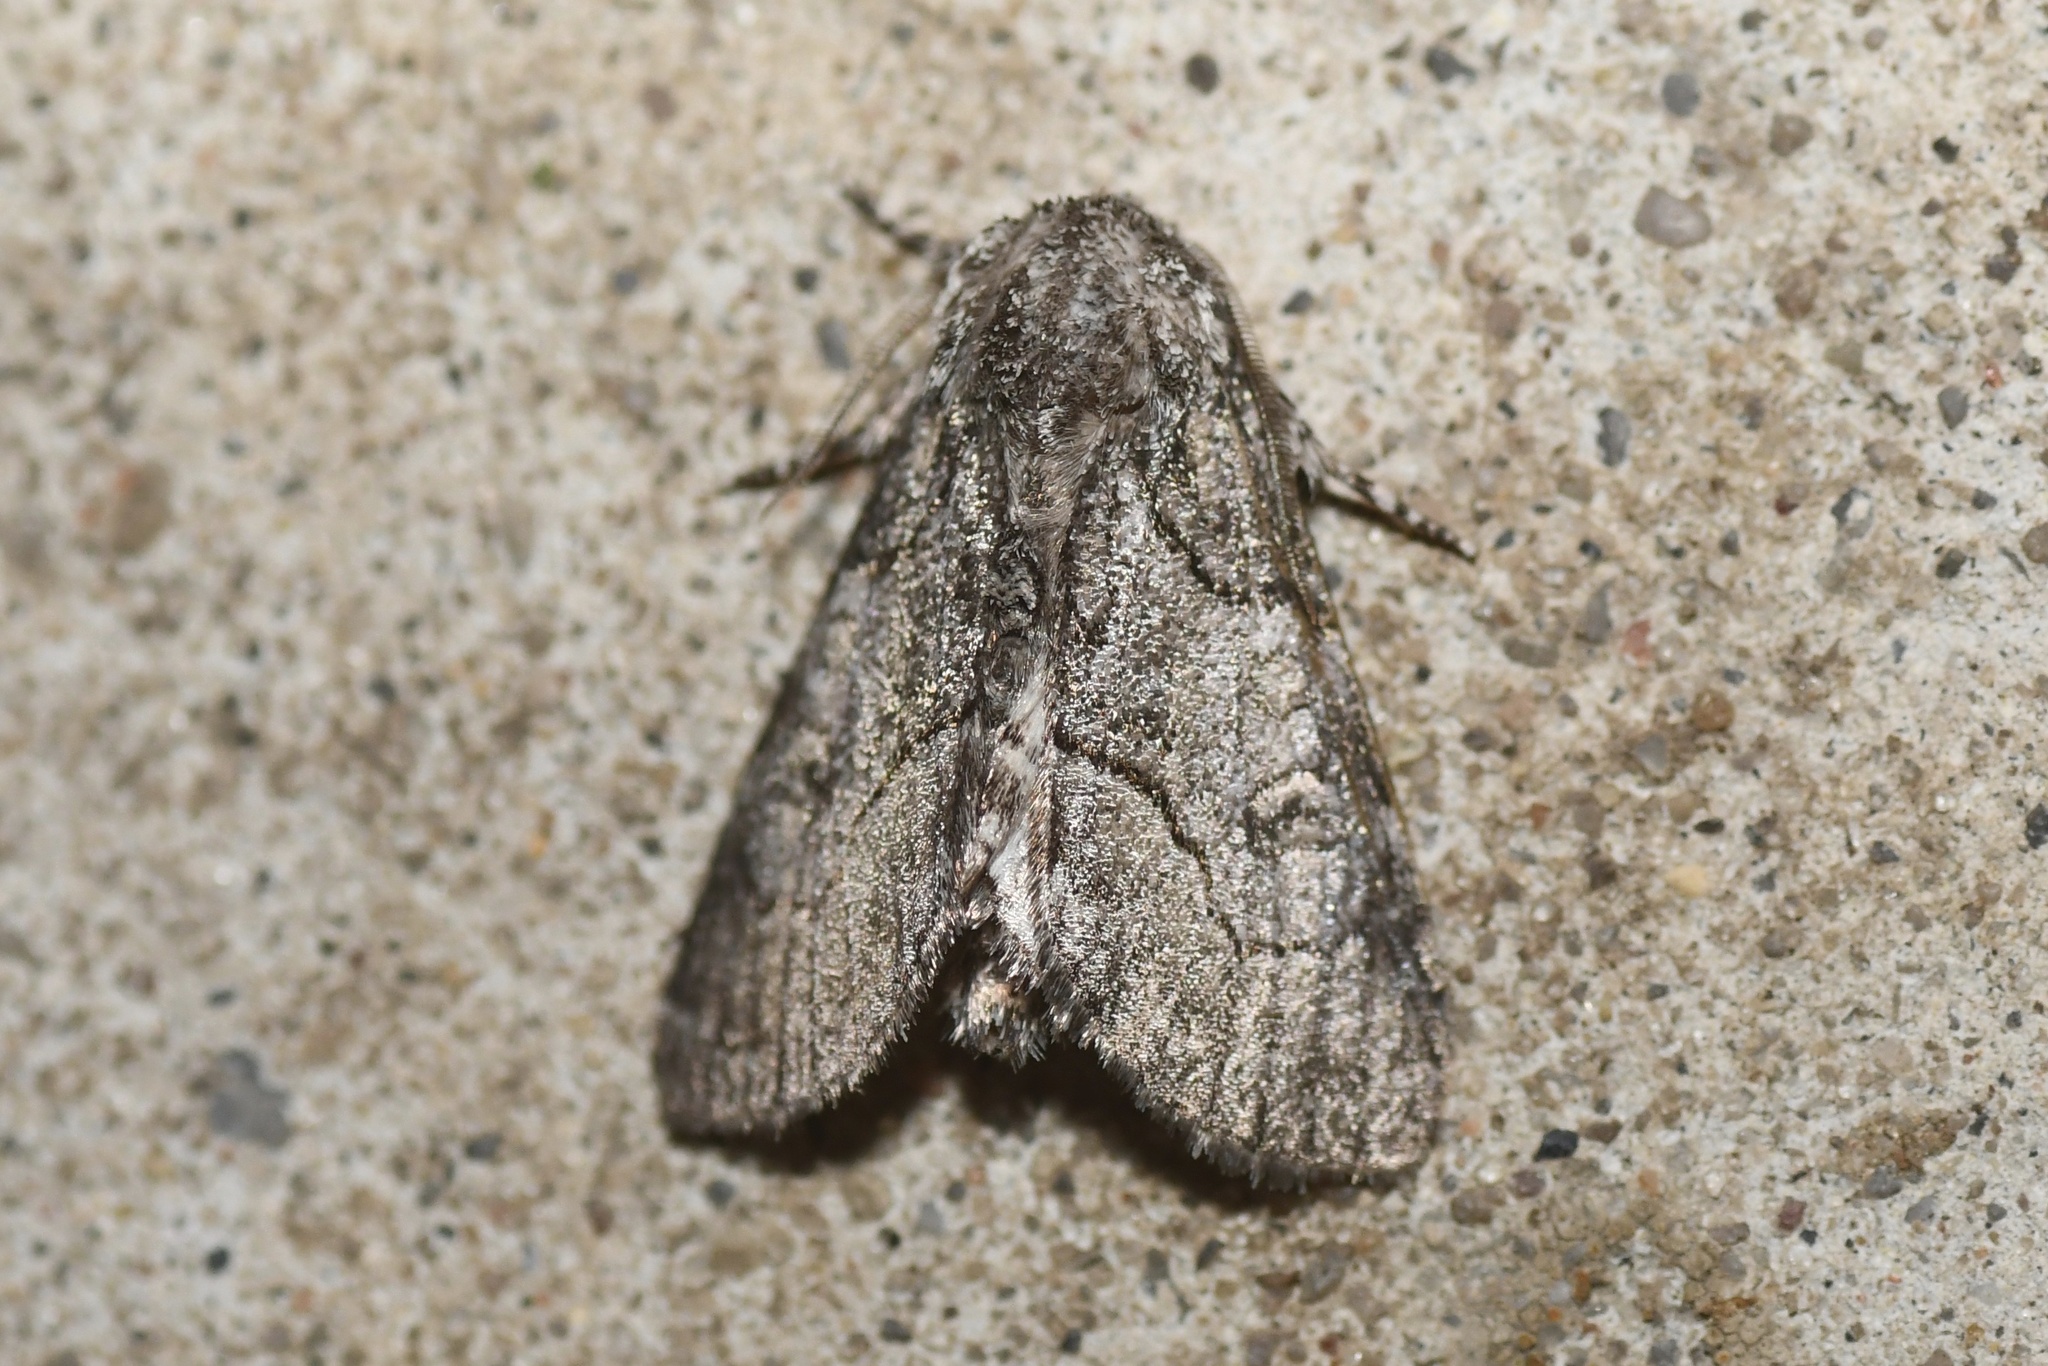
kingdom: Animalia
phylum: Arthropoda
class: Insecta
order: Lepidoptera
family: Noctuidae
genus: Raphia
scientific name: Raphia frater
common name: Brother
